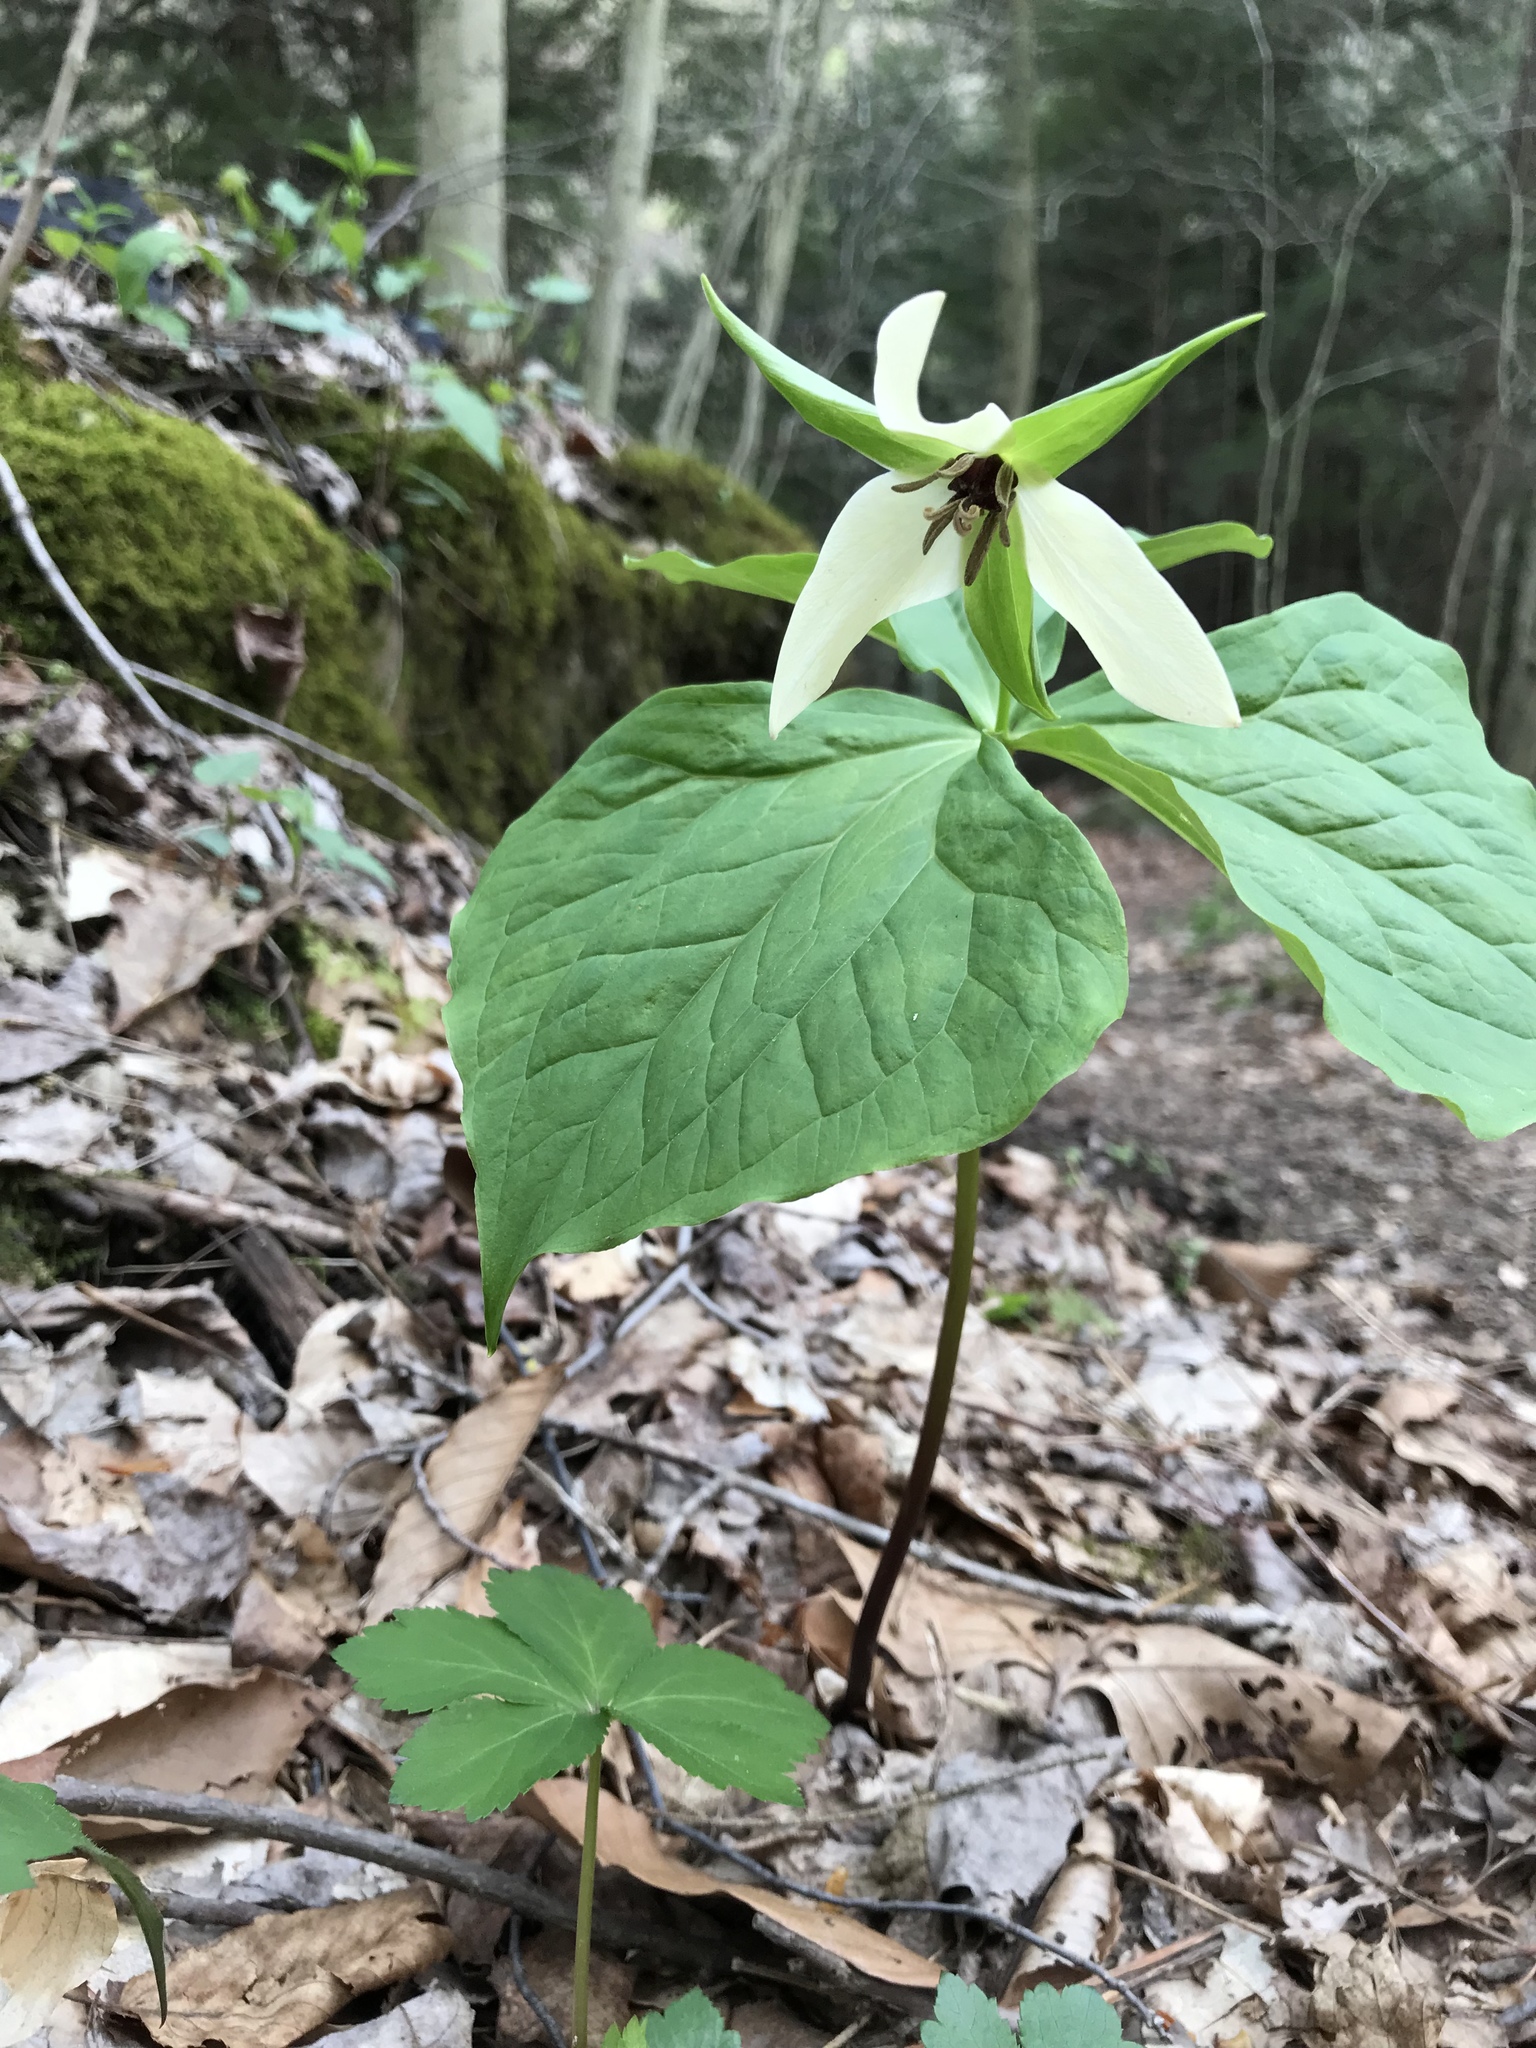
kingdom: Plantae
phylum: Tracheophyta
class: Liliopsida
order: Liliales
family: Melanthiaceae
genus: Trillium
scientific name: Trillium erectum
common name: Purple trillium
